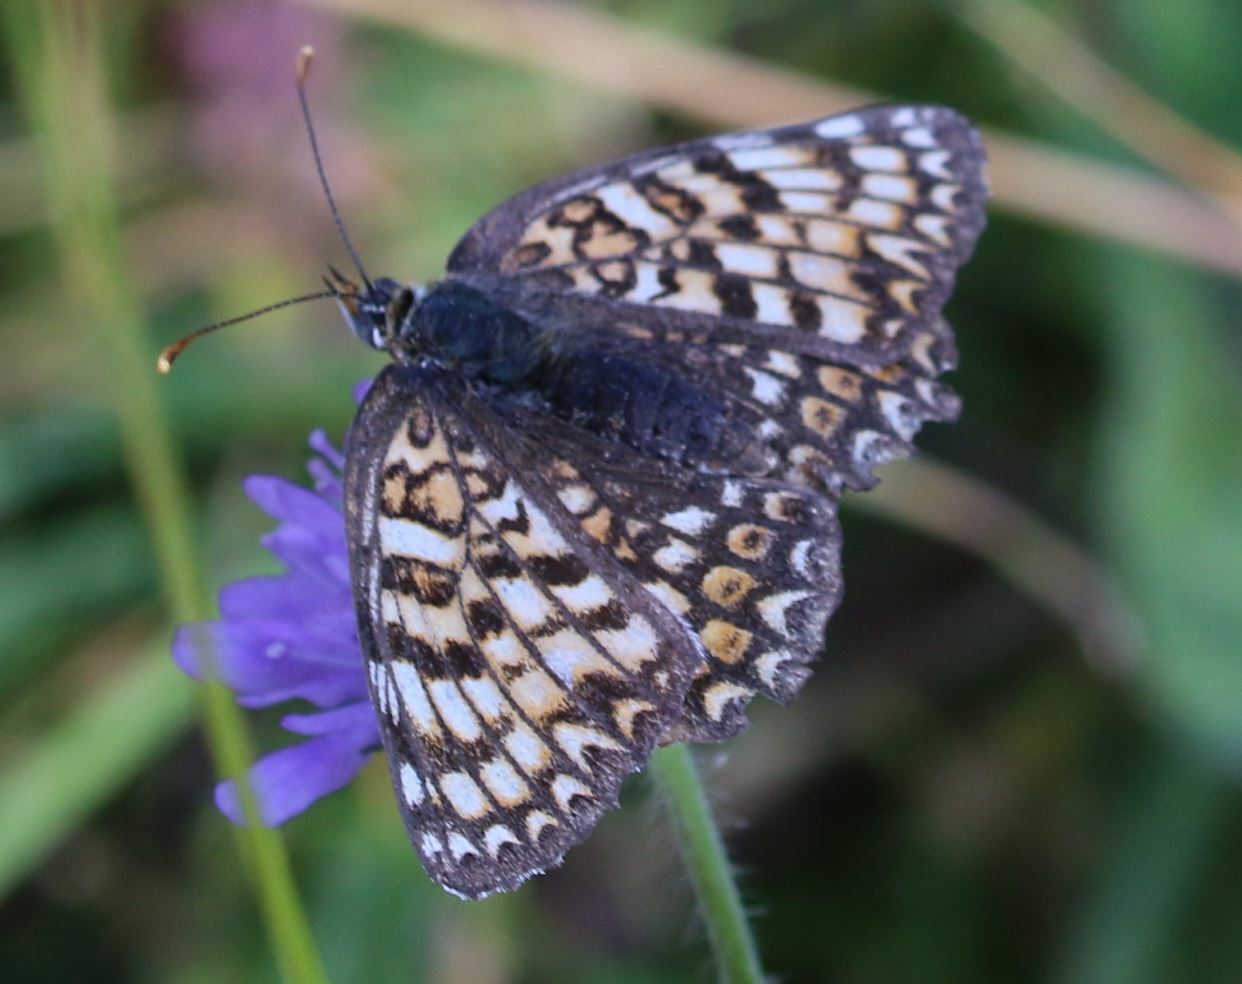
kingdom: Animalia
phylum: Arthropoda
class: Insecta
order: Lepidoptera
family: Nymphalidae
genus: Melitaea
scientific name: Melitaea phoebe
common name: Knapweed fritillary
